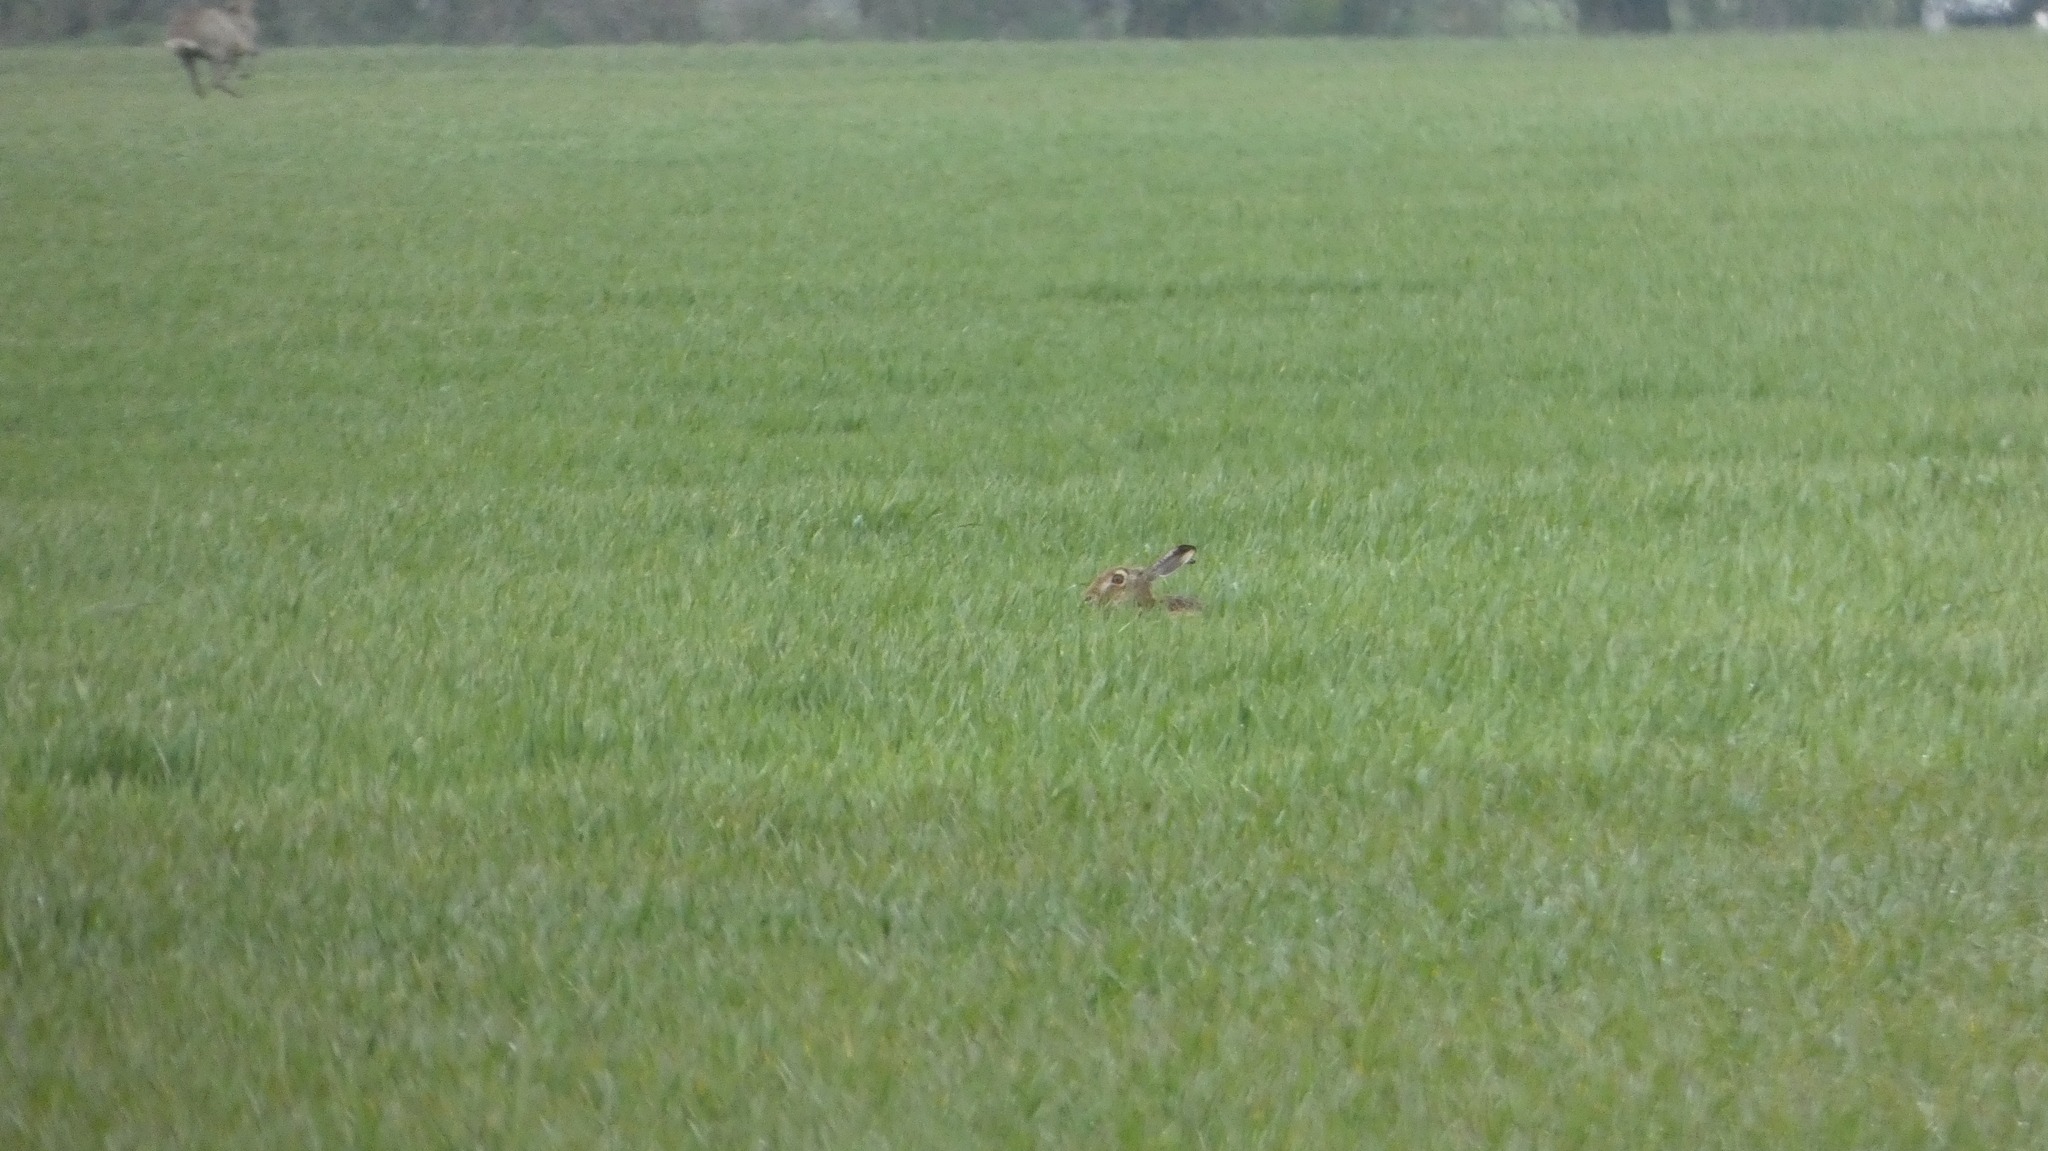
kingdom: Animalia
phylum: Chordata
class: Mammalia
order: Lagomorpha
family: Leporidae
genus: Lepus
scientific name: Lepus europaeus
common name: European hare
